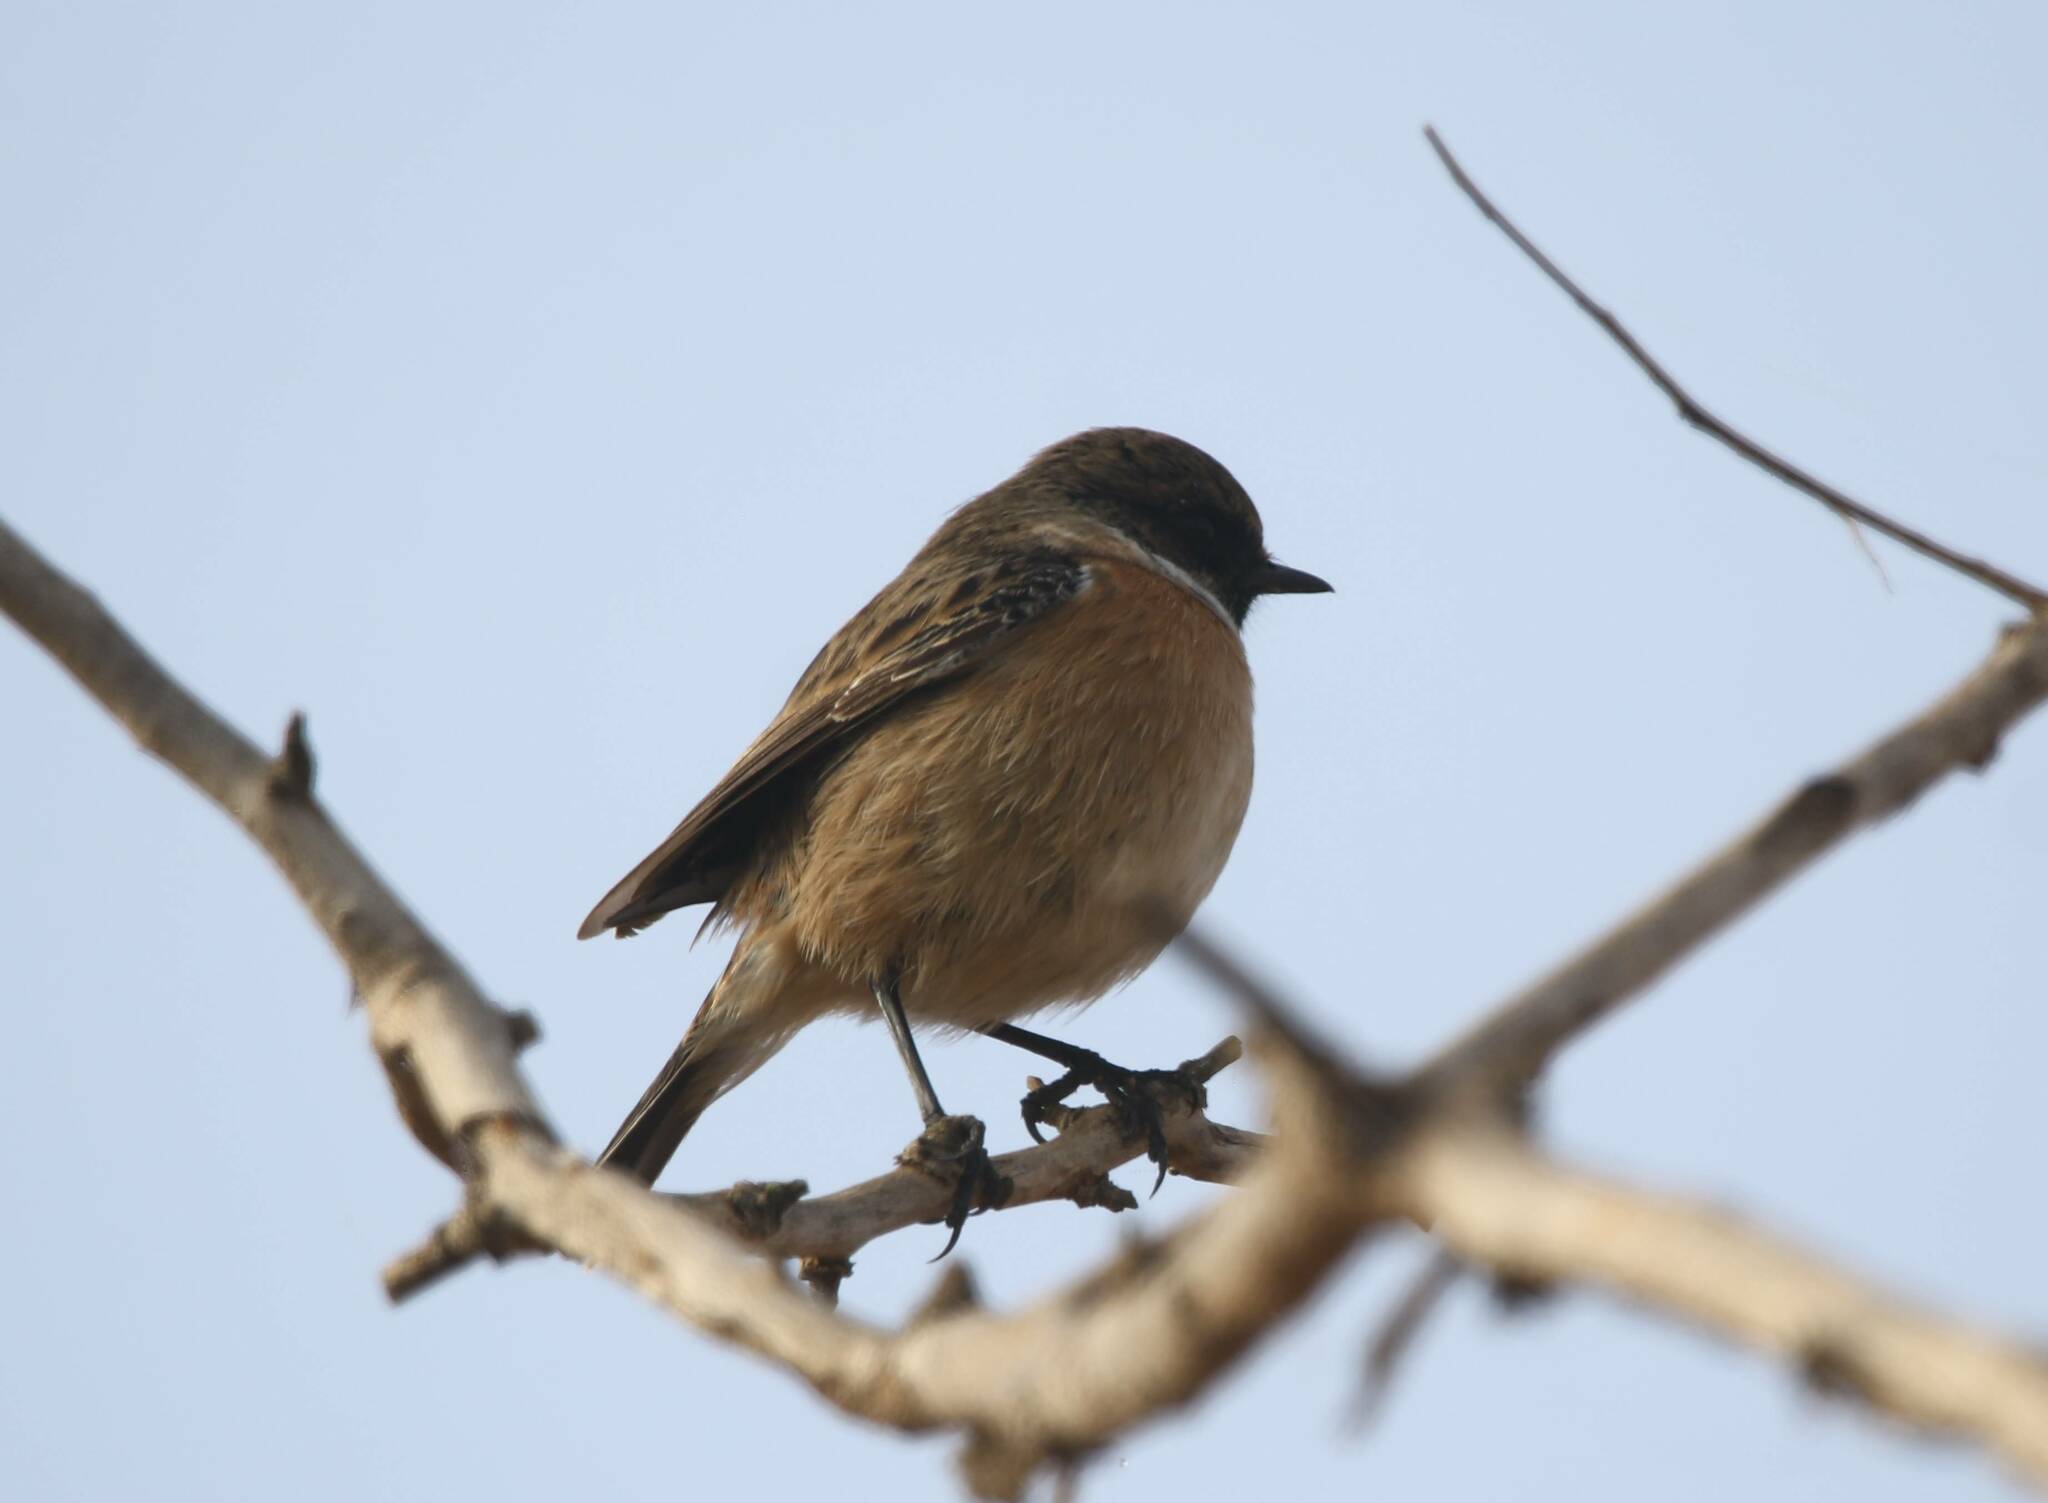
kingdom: Animalia
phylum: Chordata
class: Aves
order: Passeriformes
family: Muscicapidae
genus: Saxicola
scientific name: Saxicola rubicola
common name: European stonechat
